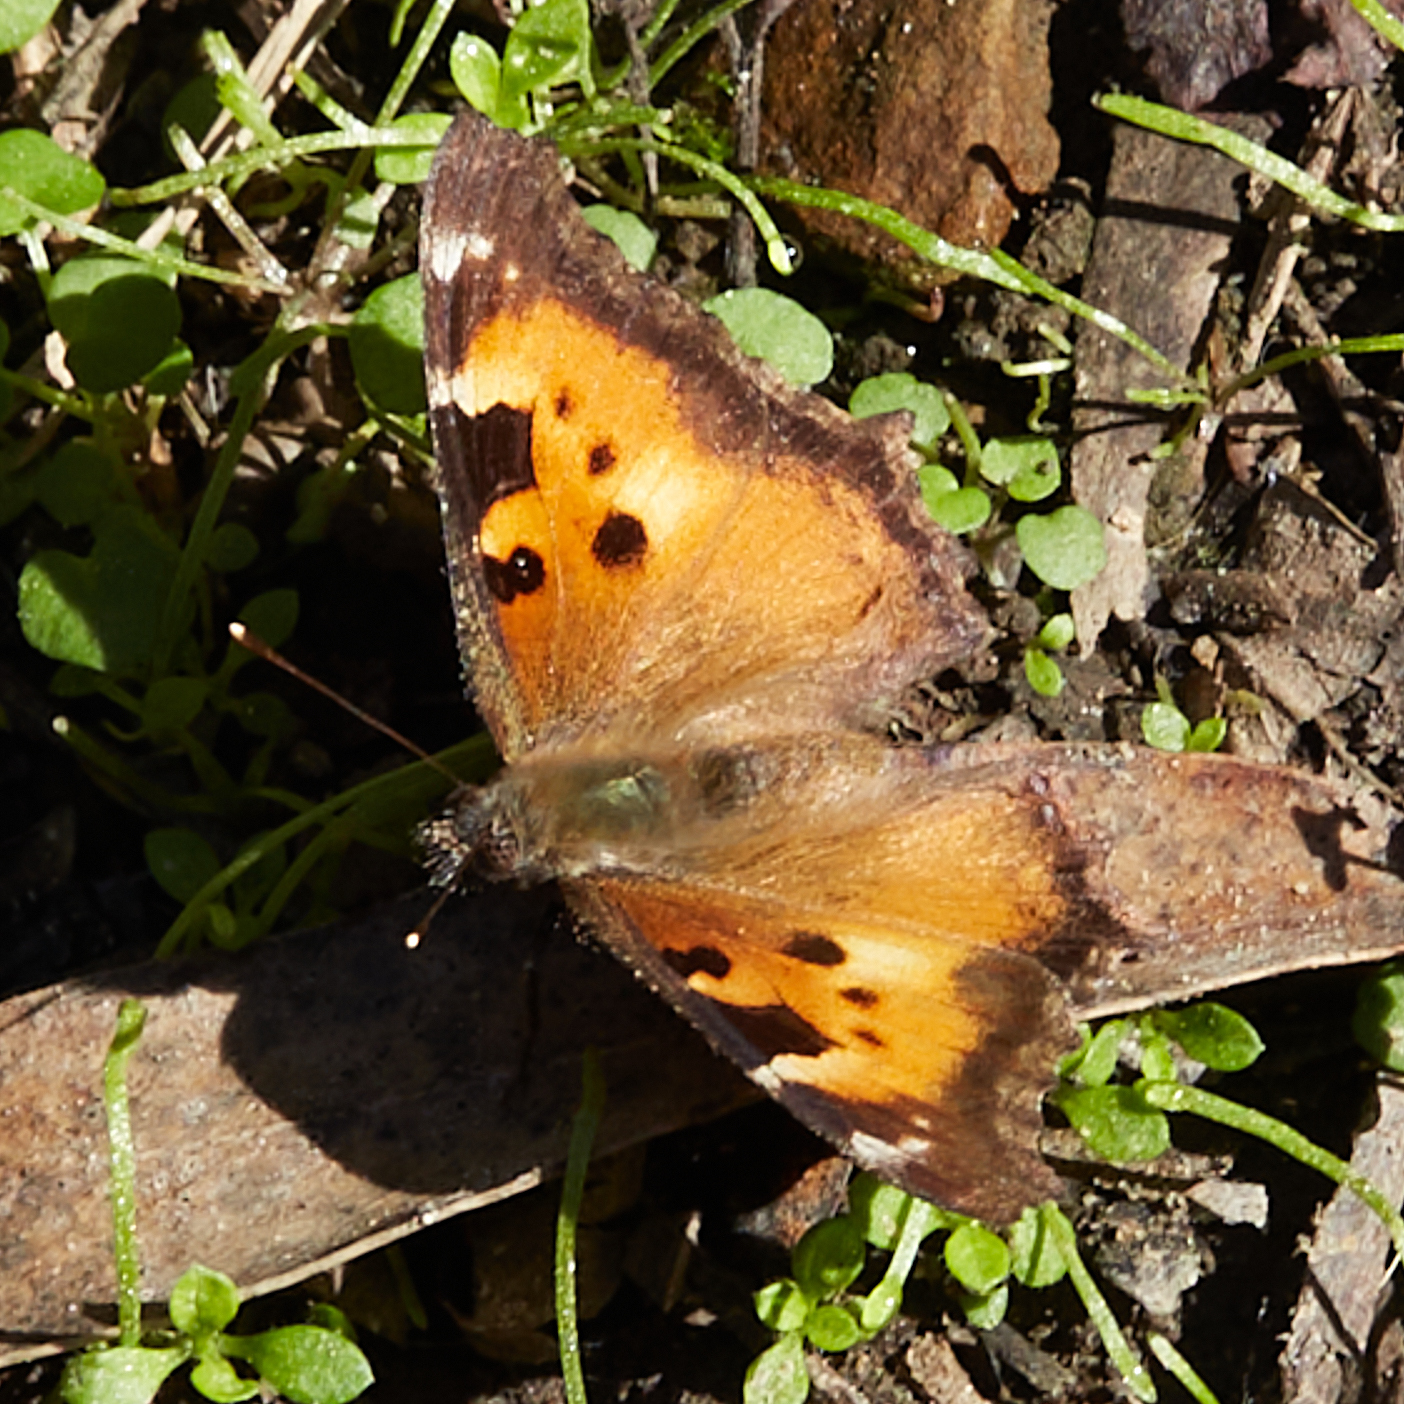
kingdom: Animalia
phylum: Arthropoda
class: Insecta
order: Lepidoptera
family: Nymphalidae
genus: Nymphalis
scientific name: Nymphalis californica
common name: California tortoiseshell
